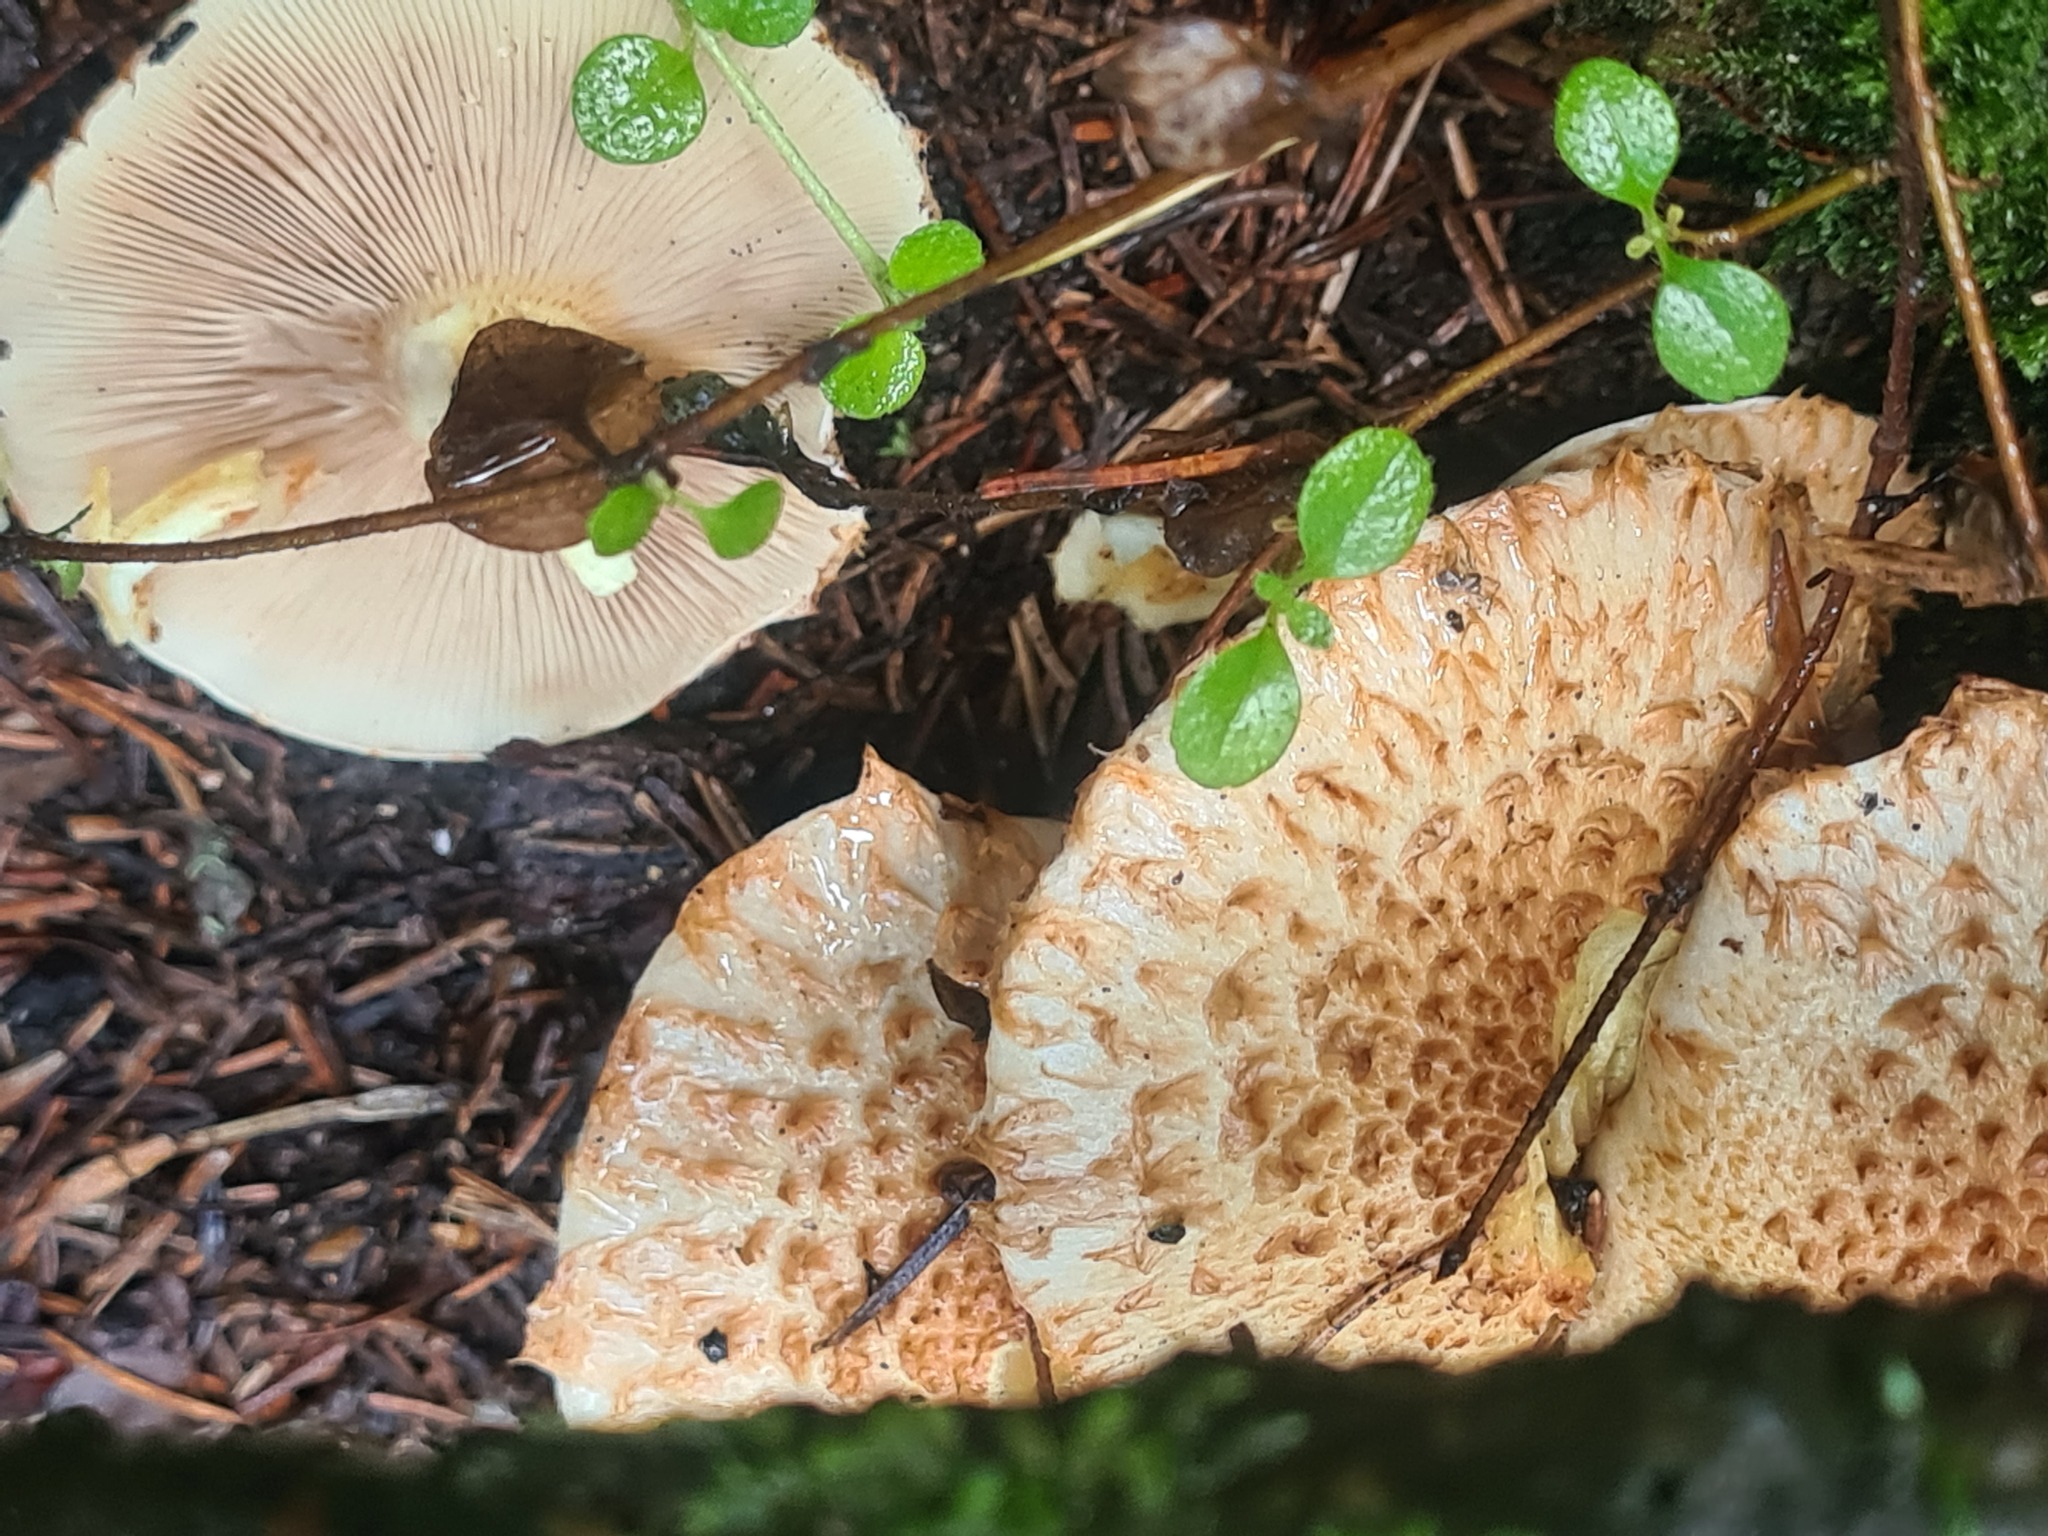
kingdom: Fungi
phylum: Basidiomycota
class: Agaricomycetes
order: Agaricales
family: Strophariaceae
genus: Pholiota
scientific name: Pholiota squarrosa
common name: Shaggy pholiota
